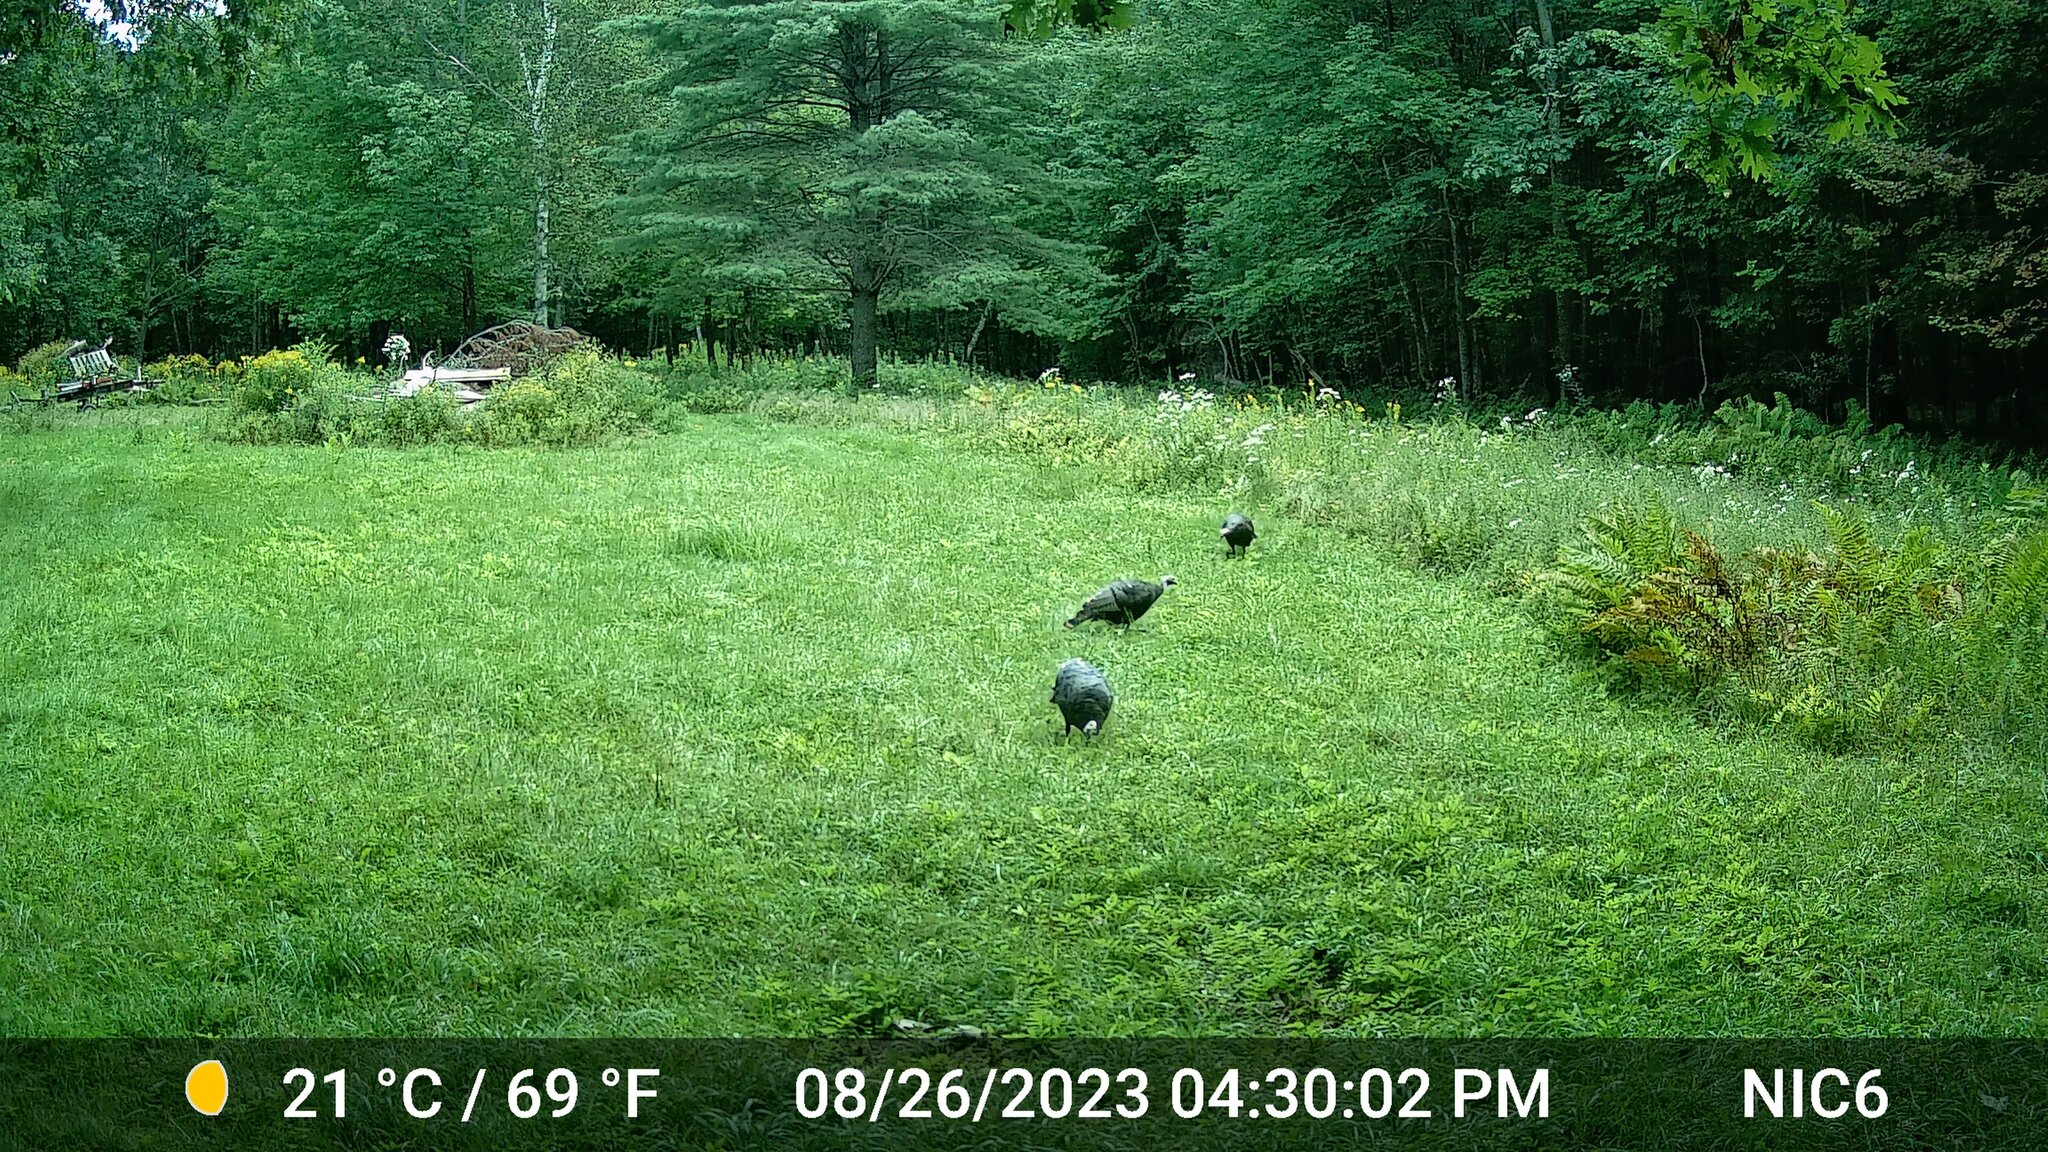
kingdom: Animalia
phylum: Chordata
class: Aves
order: Galliformes
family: Phasianidae
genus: Meleagris
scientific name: Meleagris gallopavo
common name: Wild turkey
